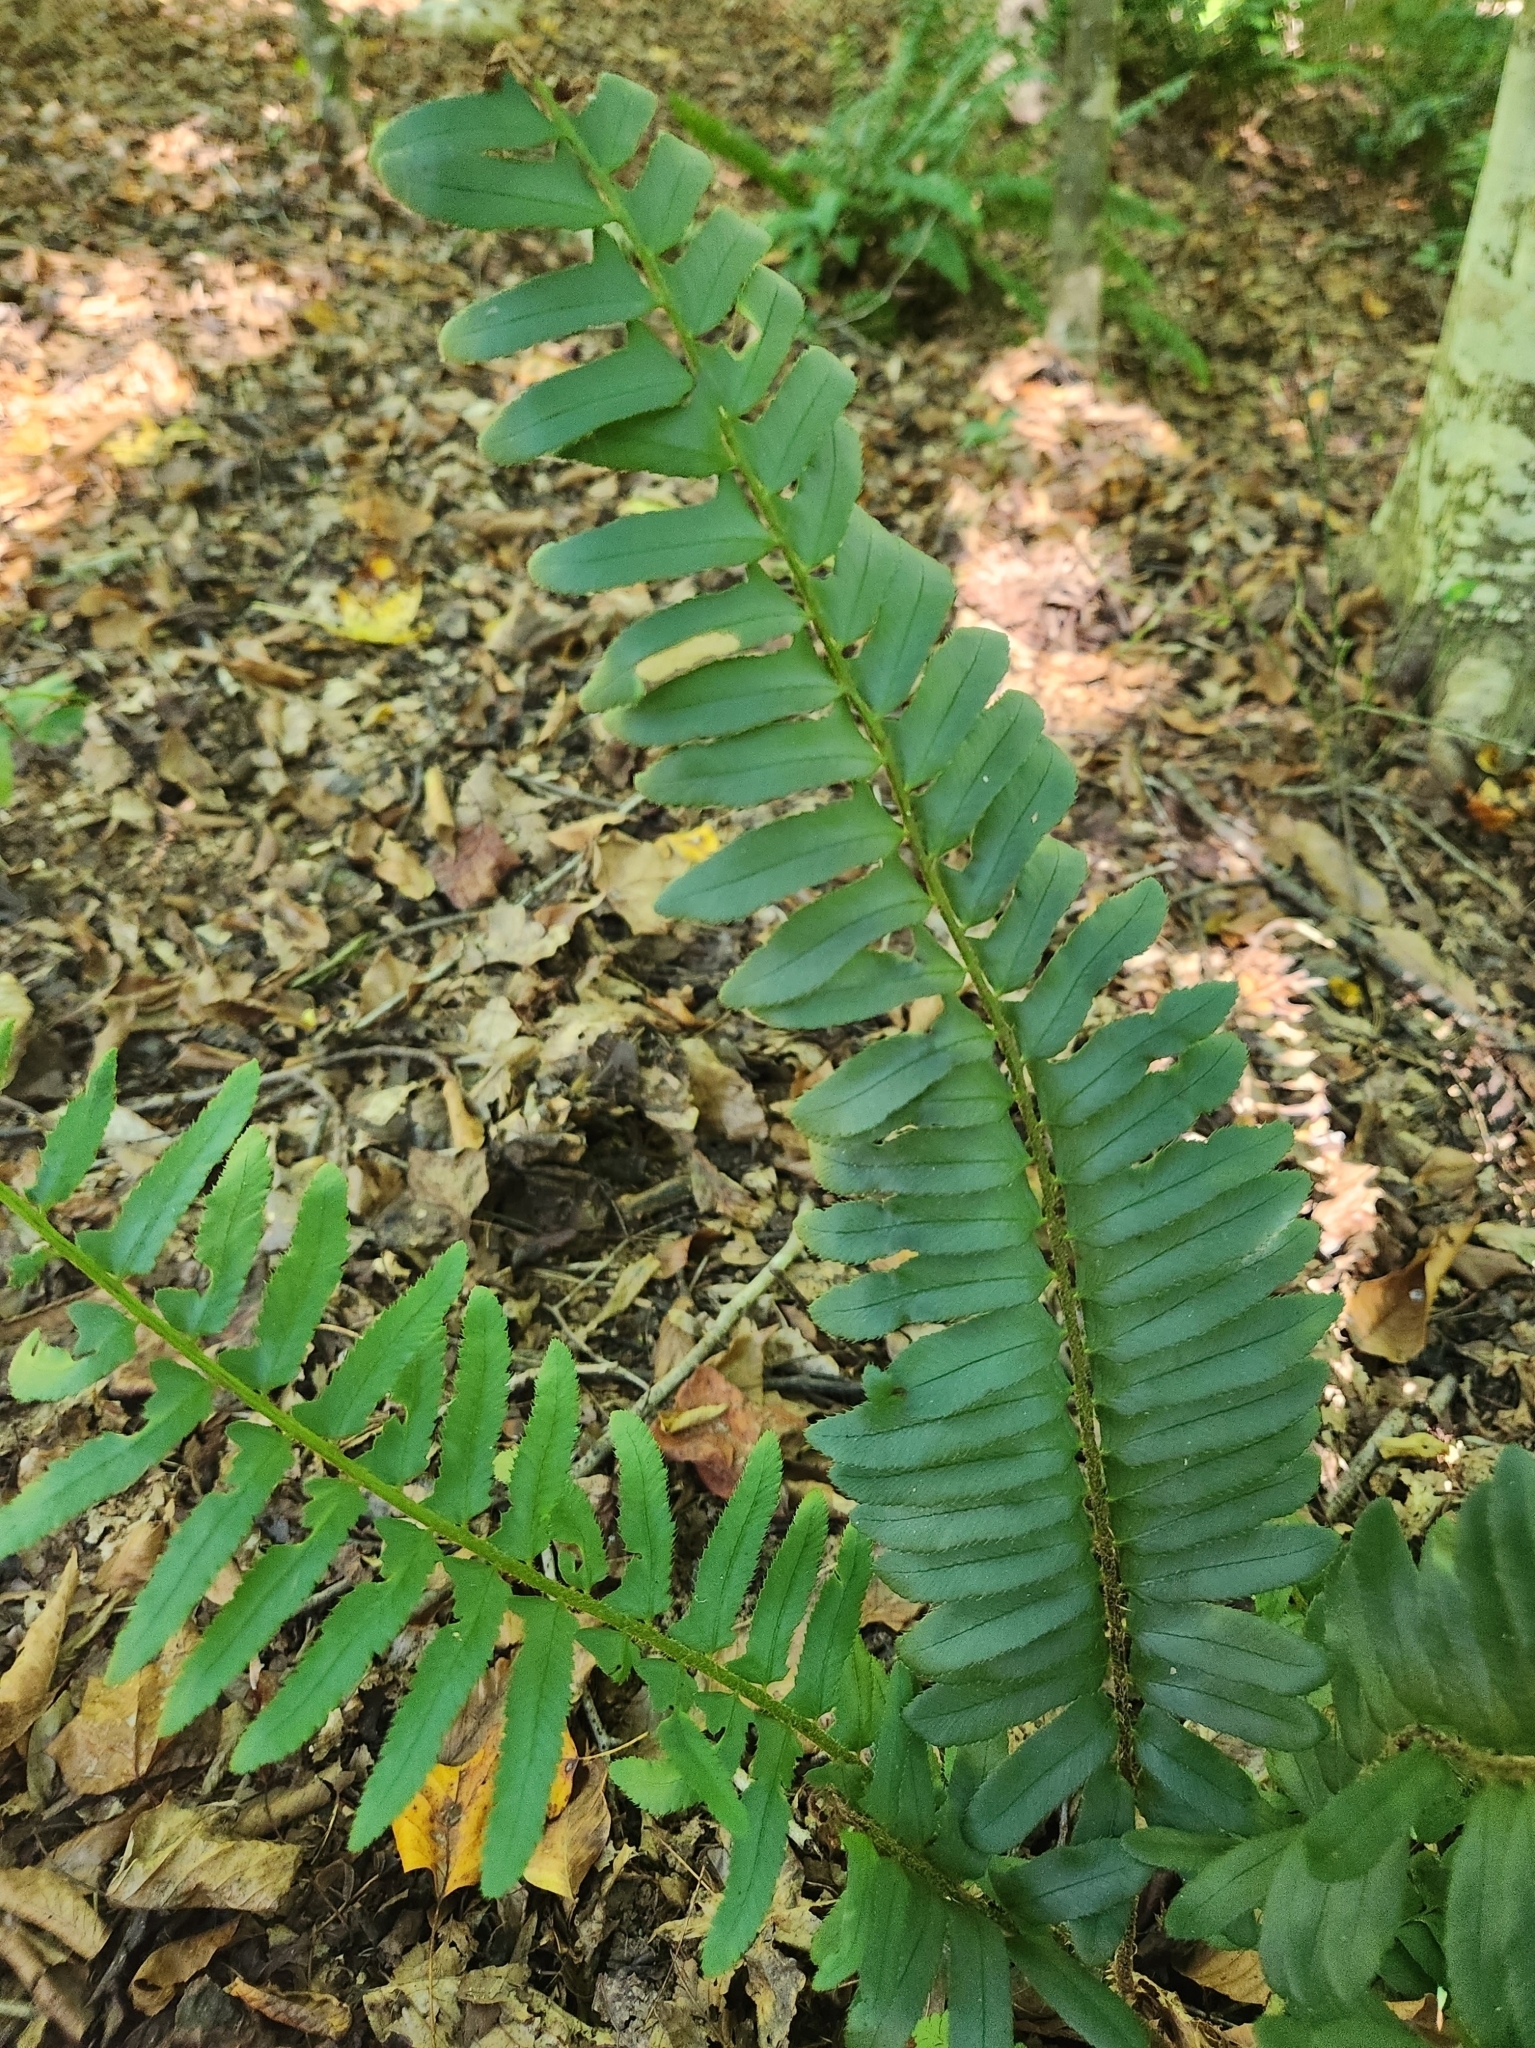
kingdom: Plantae
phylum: Tracheophyta
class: Polypodiopsida
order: Polypodiales
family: Dryopteridaceae
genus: Polystichum
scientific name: Polystichum acrostichoides
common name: Christmas fern
